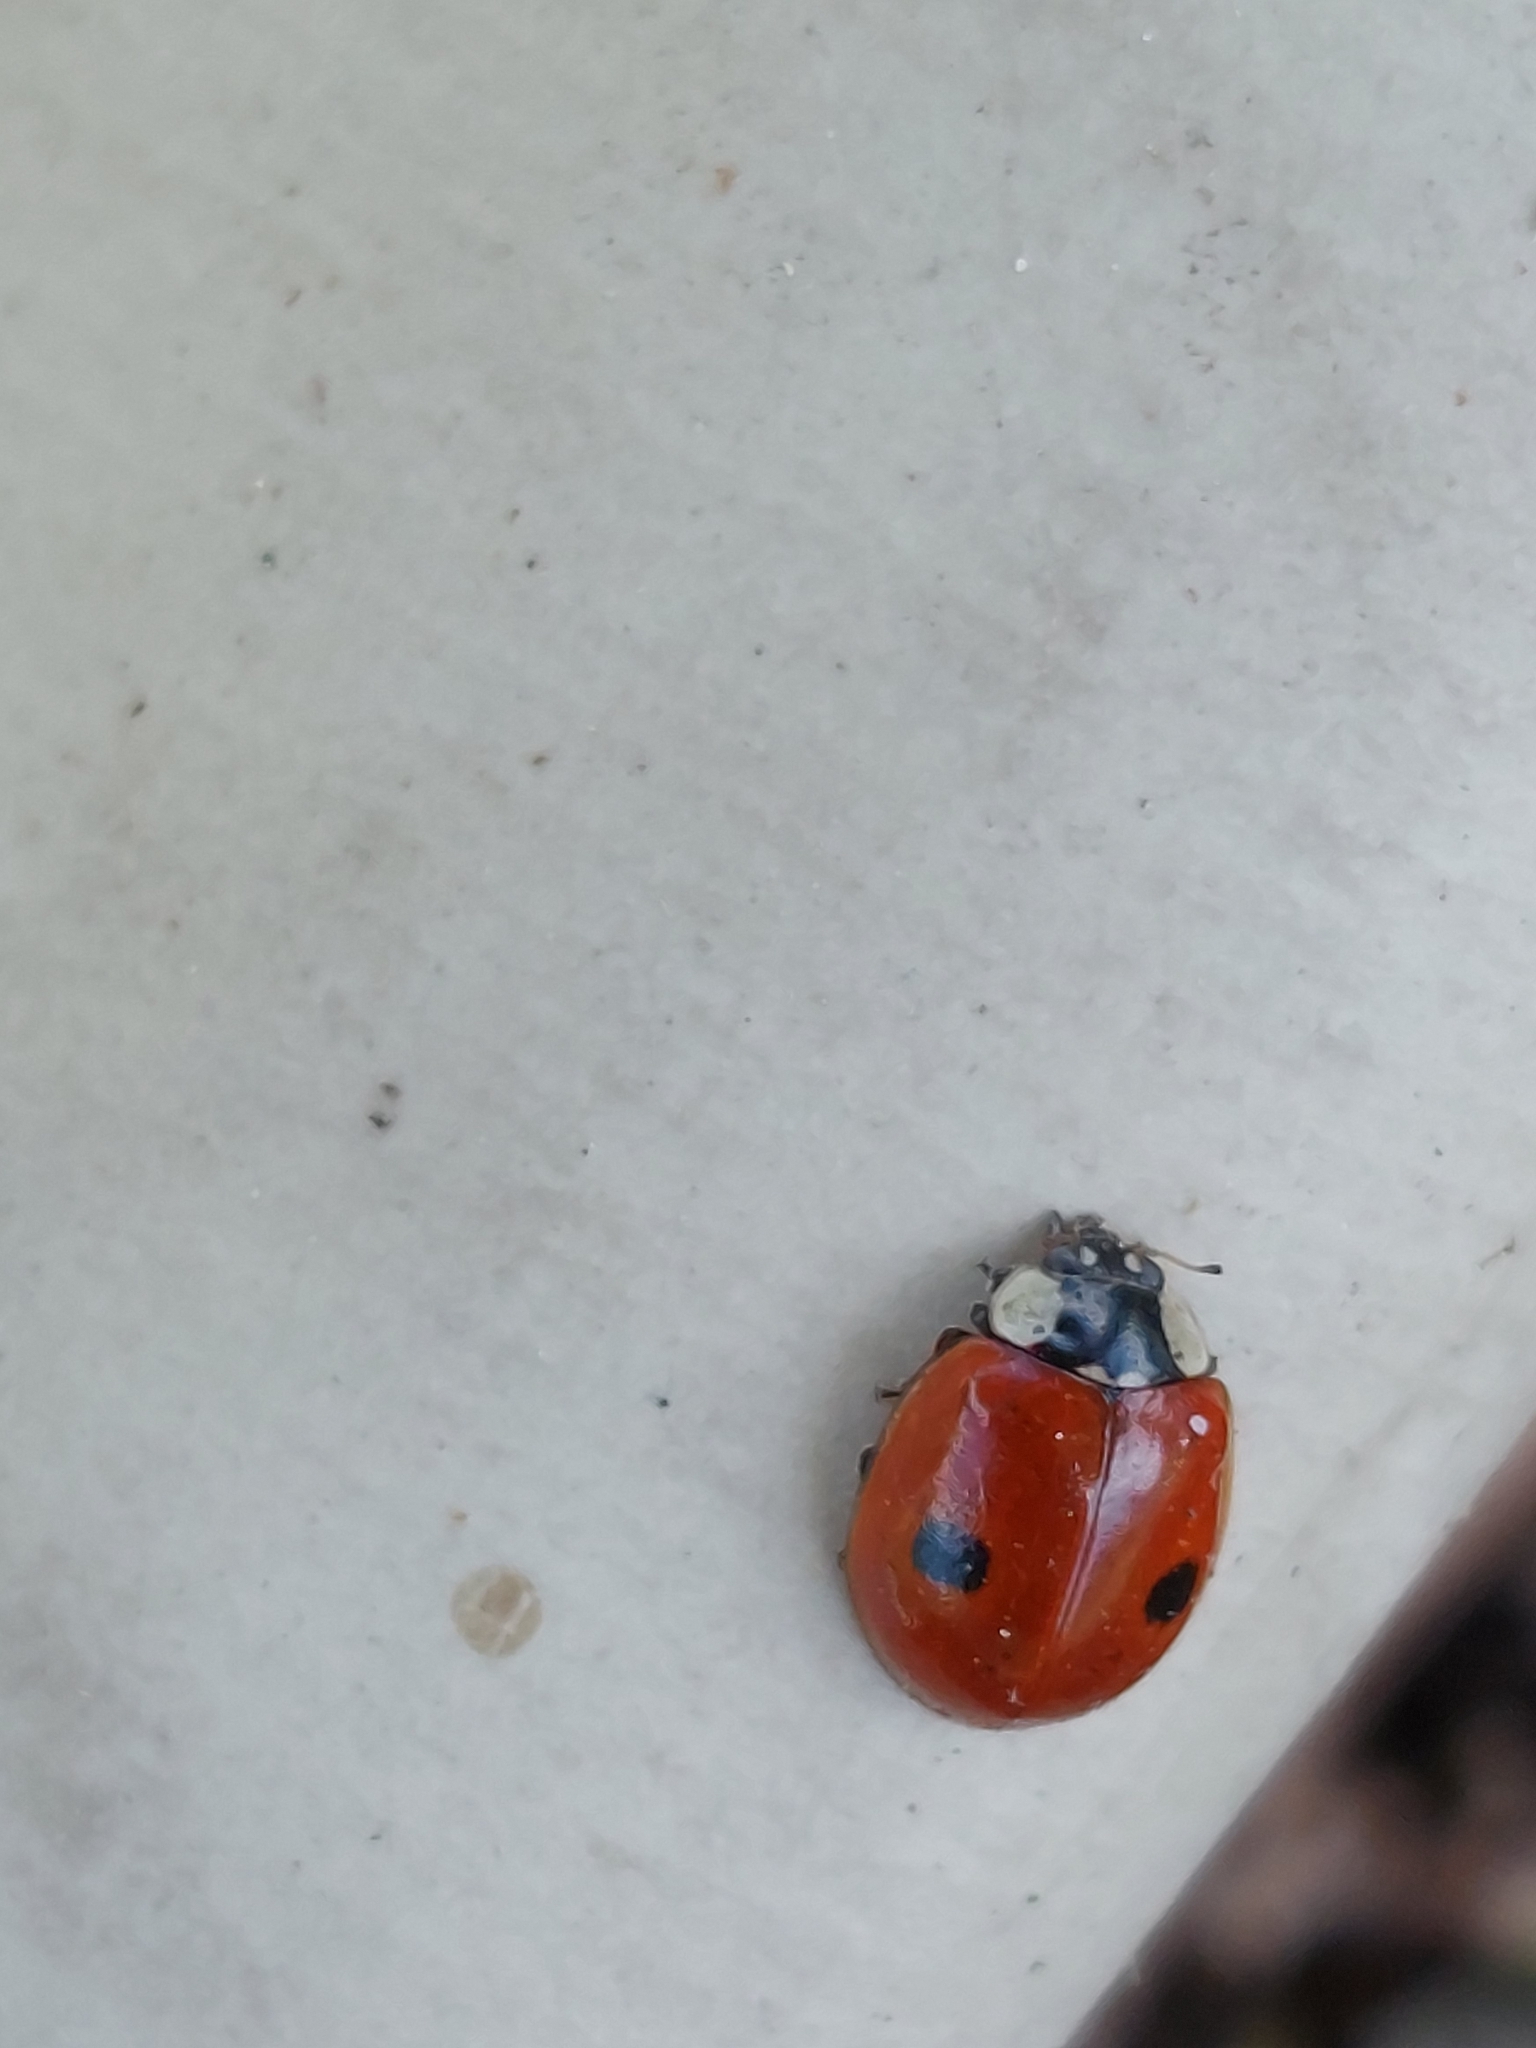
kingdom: Animalia
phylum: Arthropoda
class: Insecta
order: Coleoptera
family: Coccinellidae
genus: Adalia
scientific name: Adalia bipunctata
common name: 2-spot ladybird
